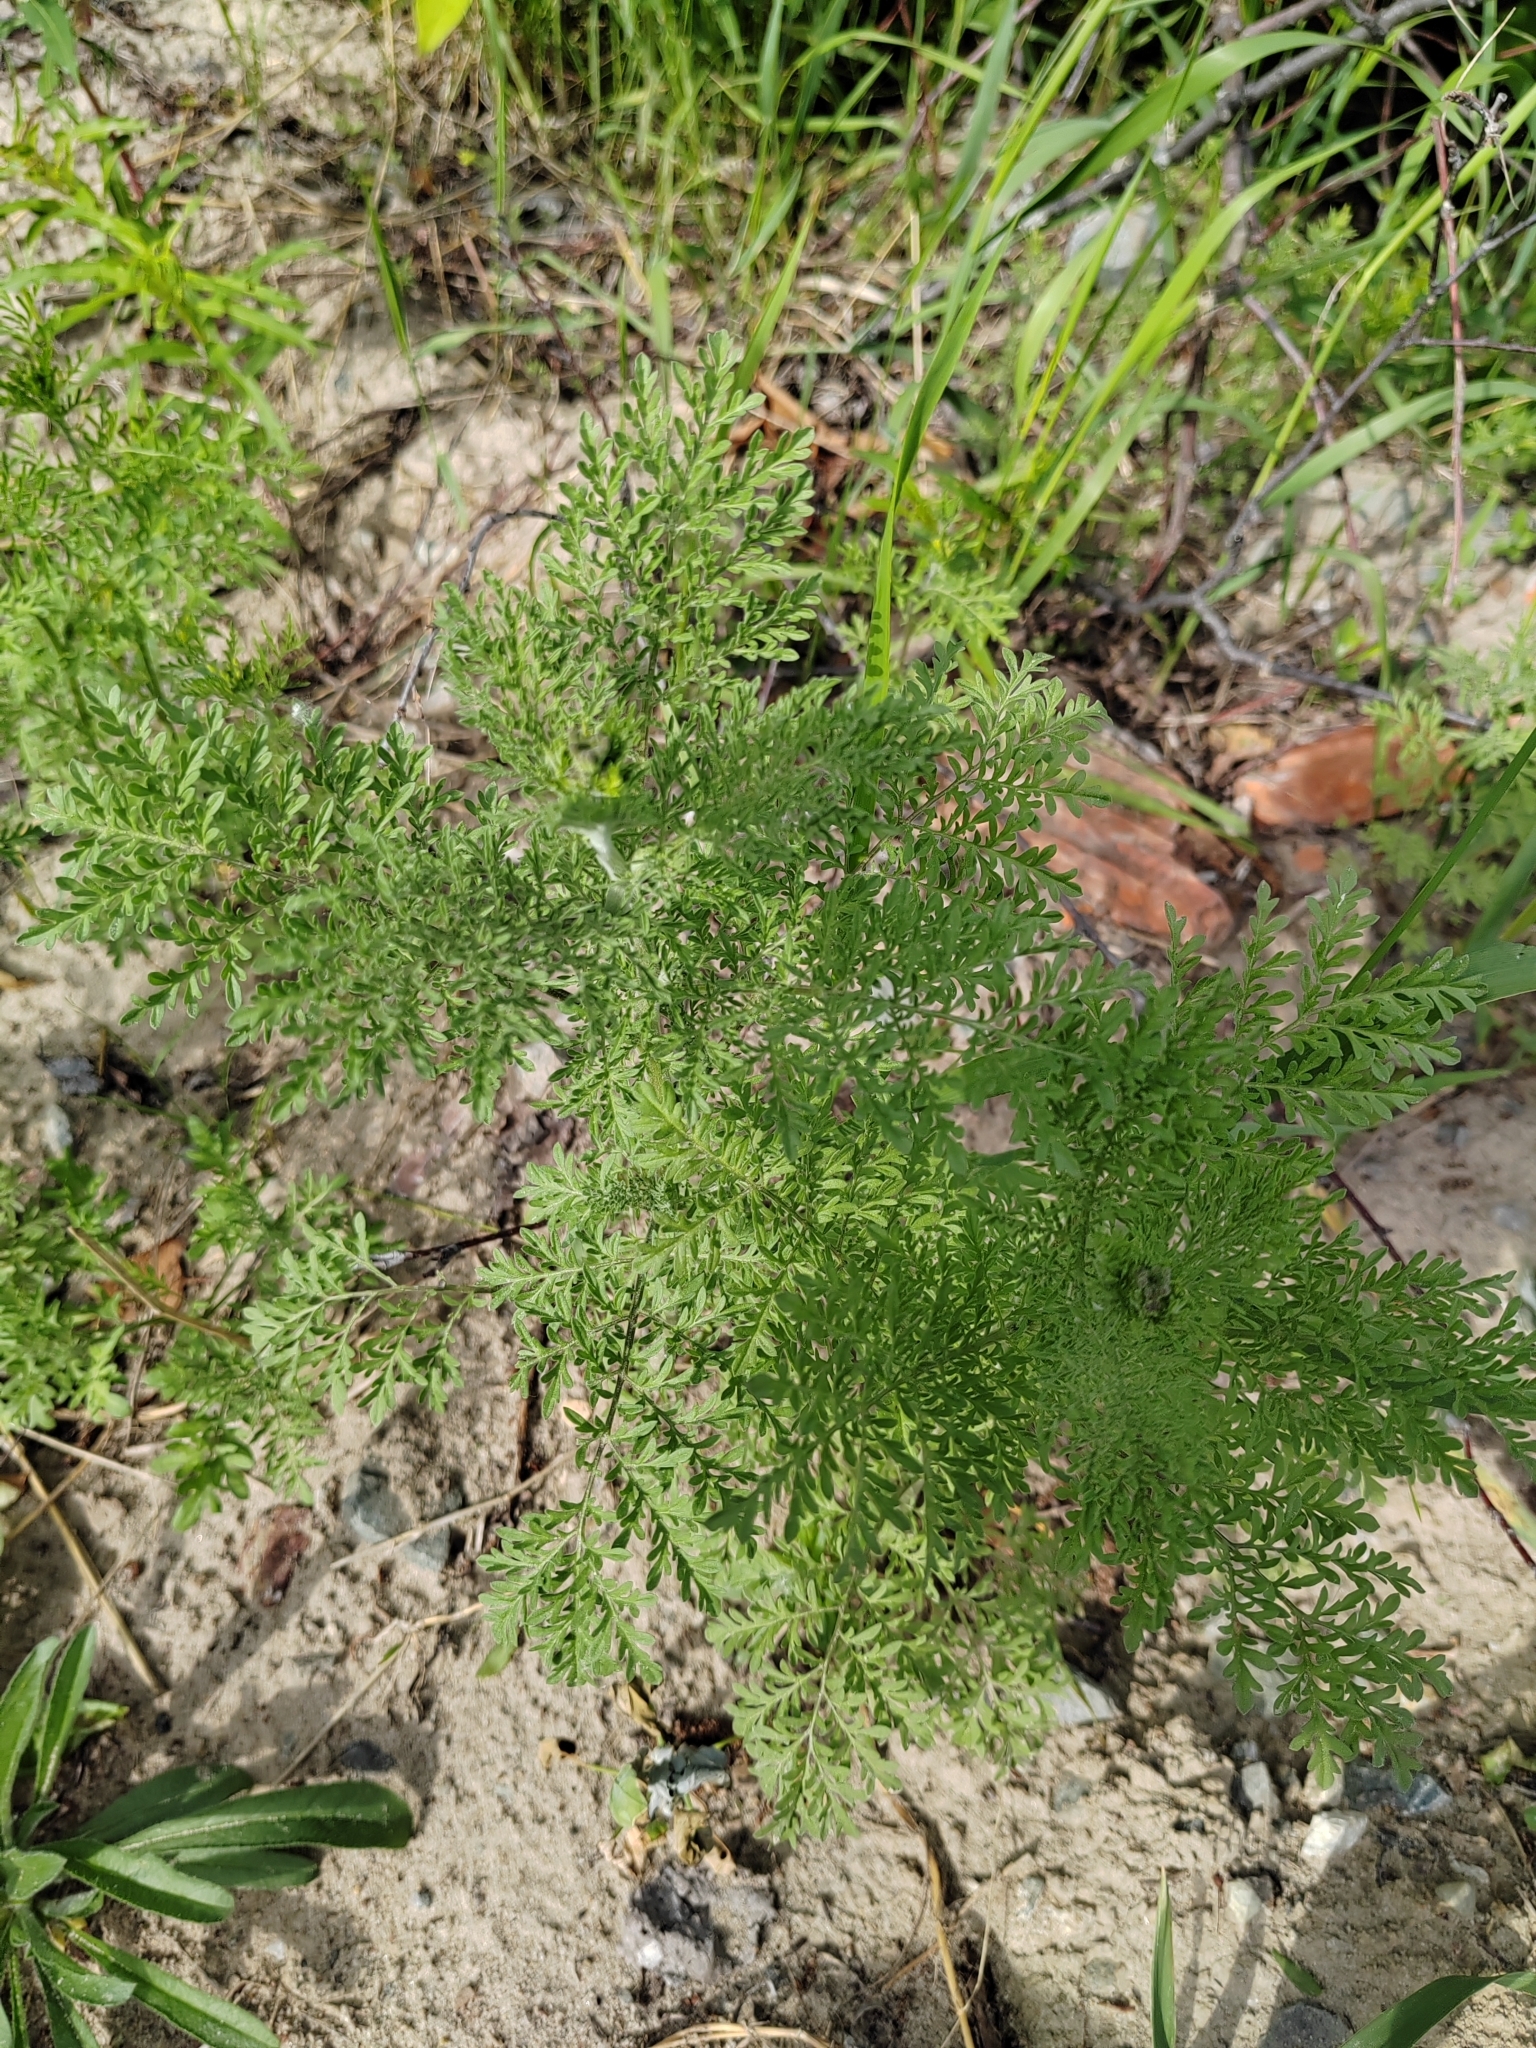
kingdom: Plantae
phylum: Tracheophyta
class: Magnoliopsida
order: Brassicales
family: Brassicaceae
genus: Descurainia
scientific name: Descurainia sophia
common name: Flixweed
